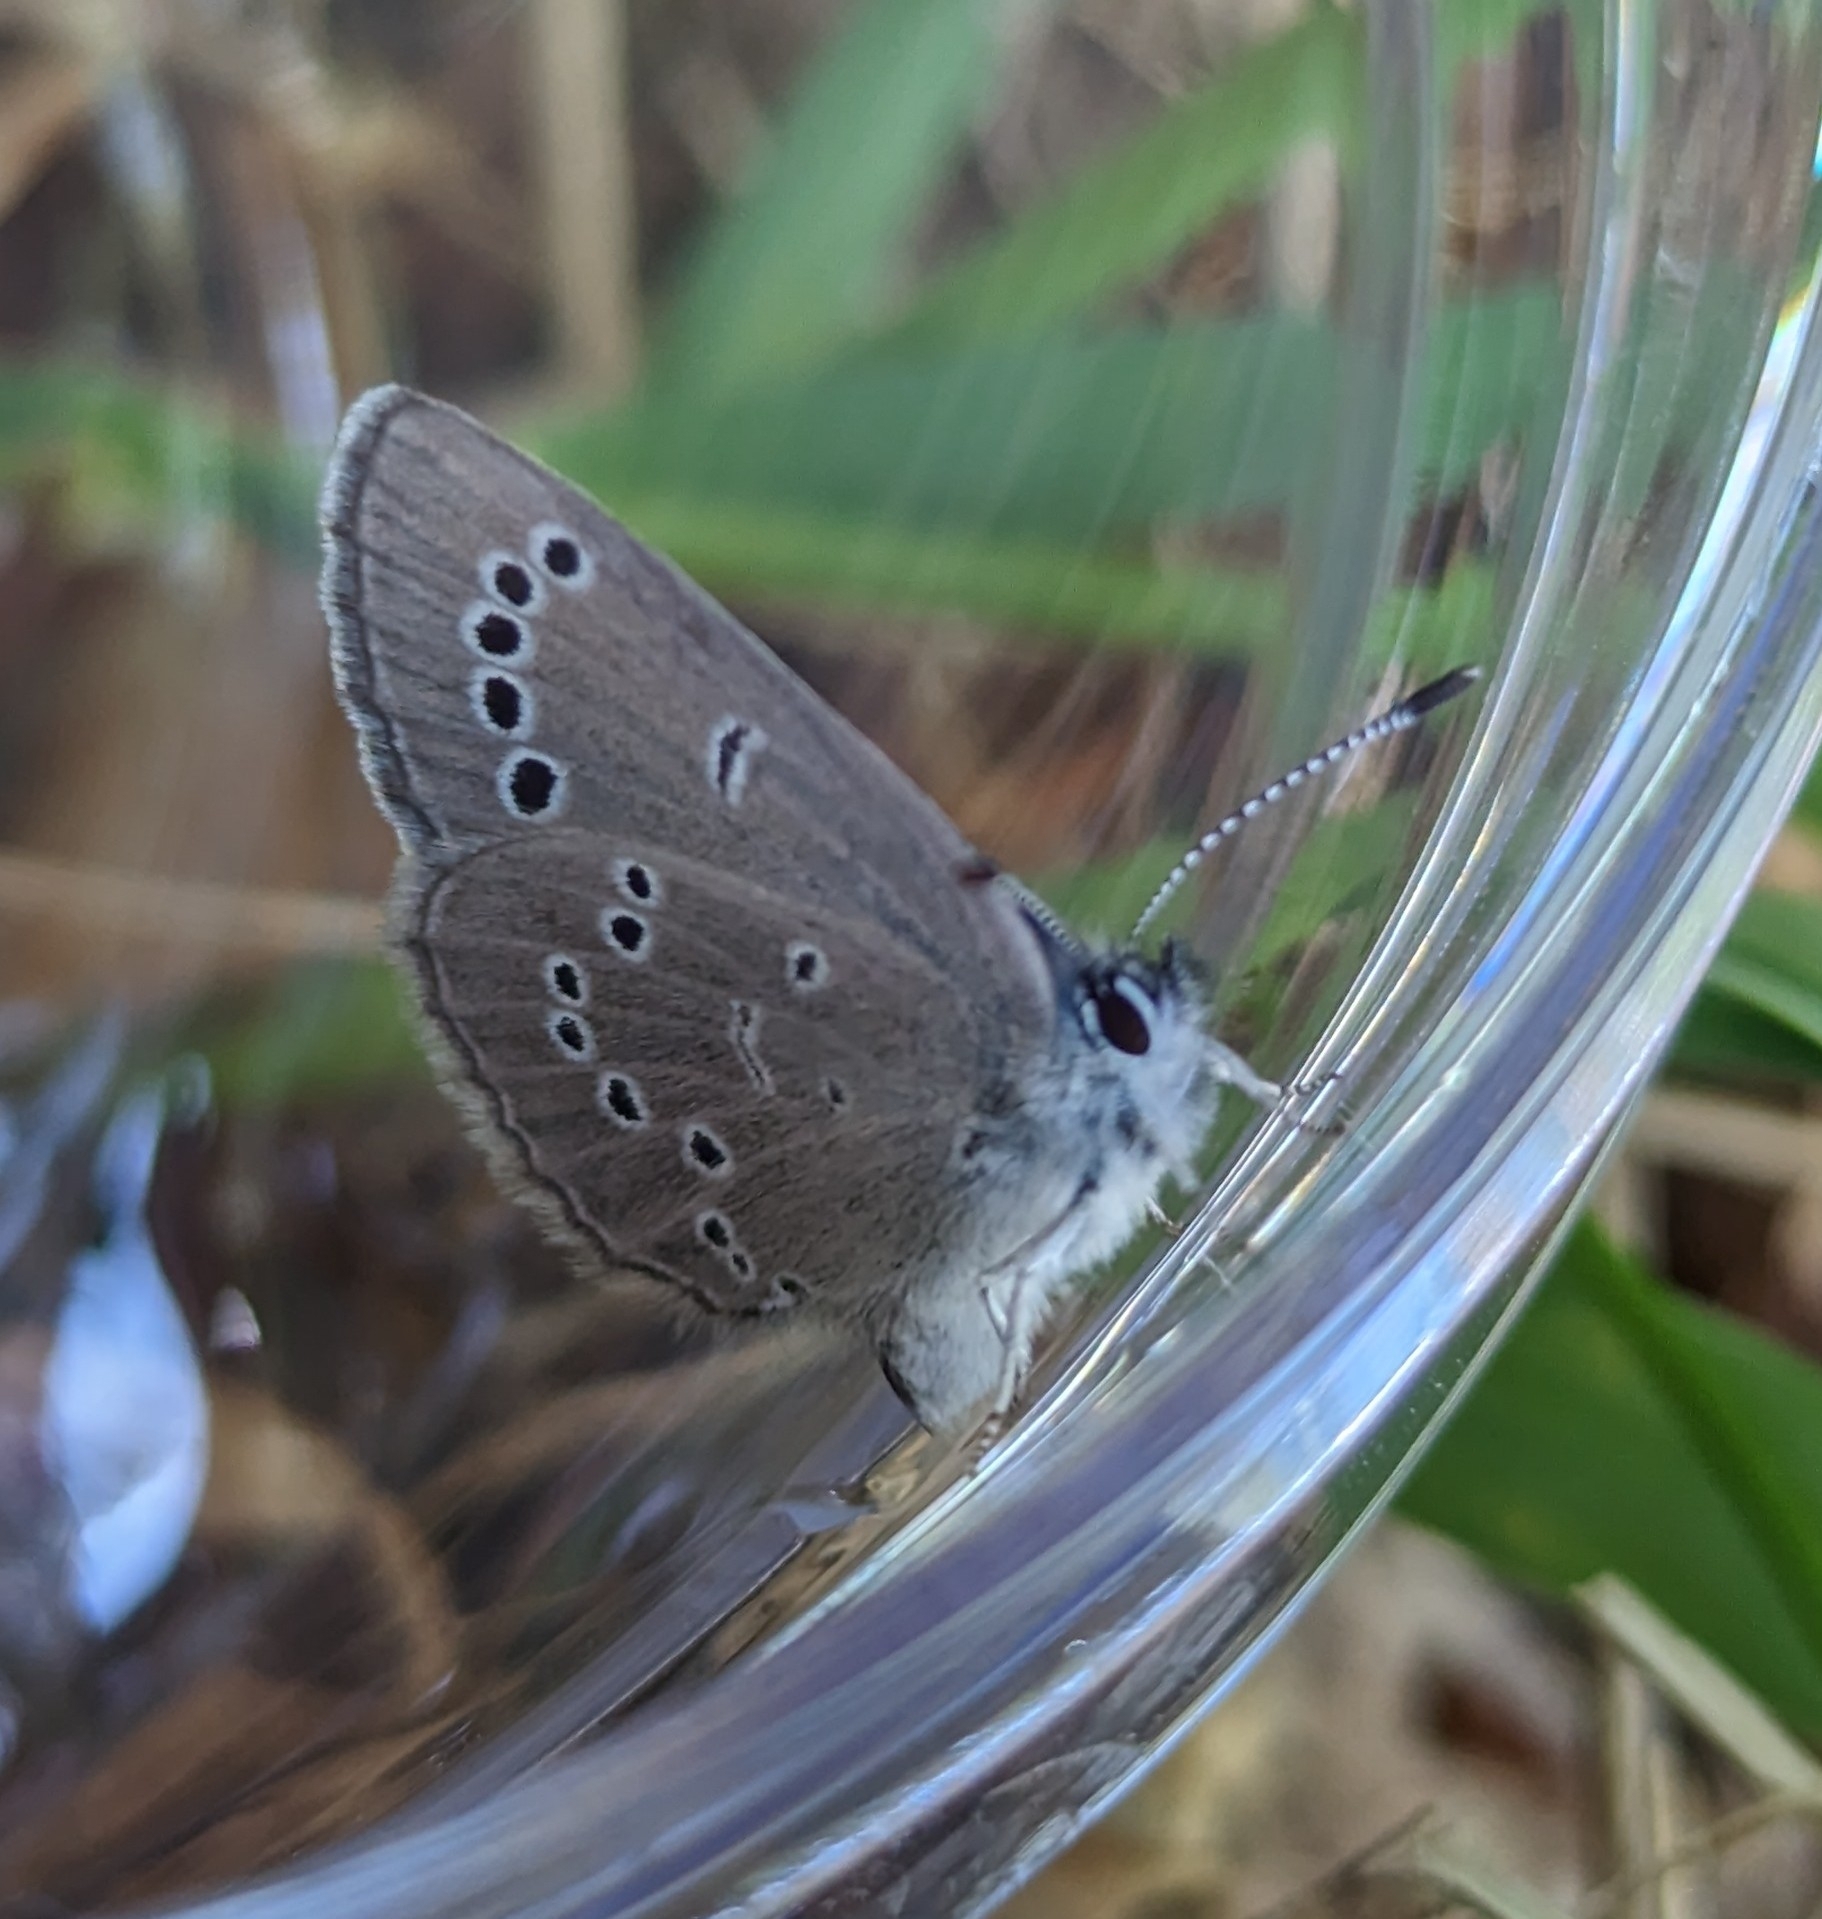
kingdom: Animalia
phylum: Arthropoda
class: Insecta
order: Lepidoptera
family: Lycaenidae
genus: Glaucopsyche
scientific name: Glaucopsyche lygdamus
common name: Silvery blue
